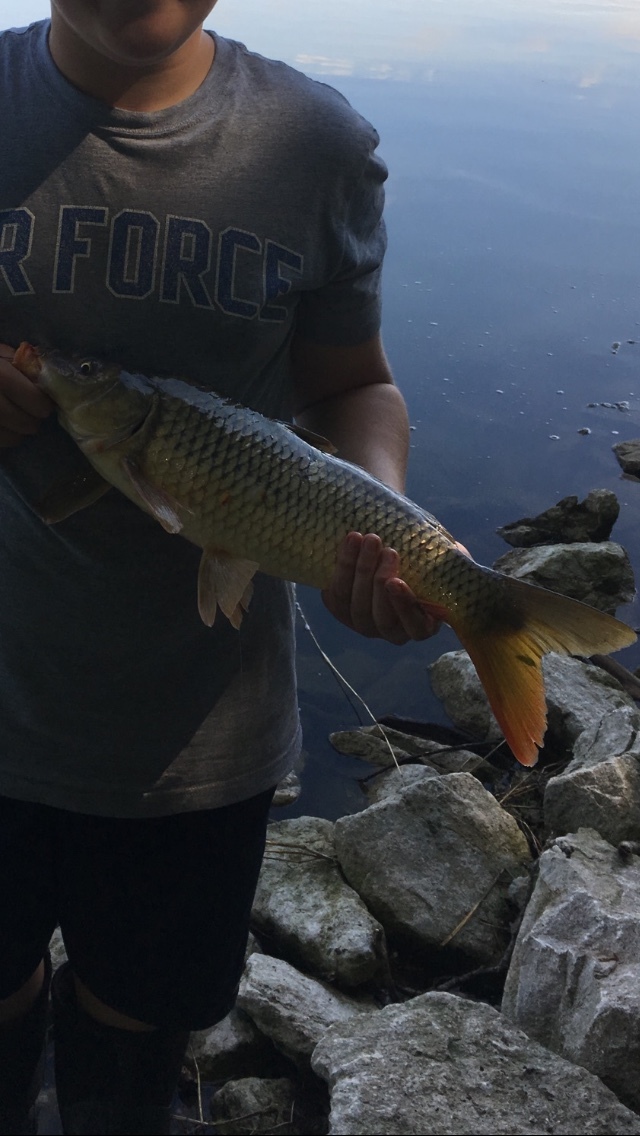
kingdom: Animalia
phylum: Chordata
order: Cypriniformes
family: Cyprinidae
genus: Cyprinus
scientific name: Cyprinus carpio
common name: Common carp
